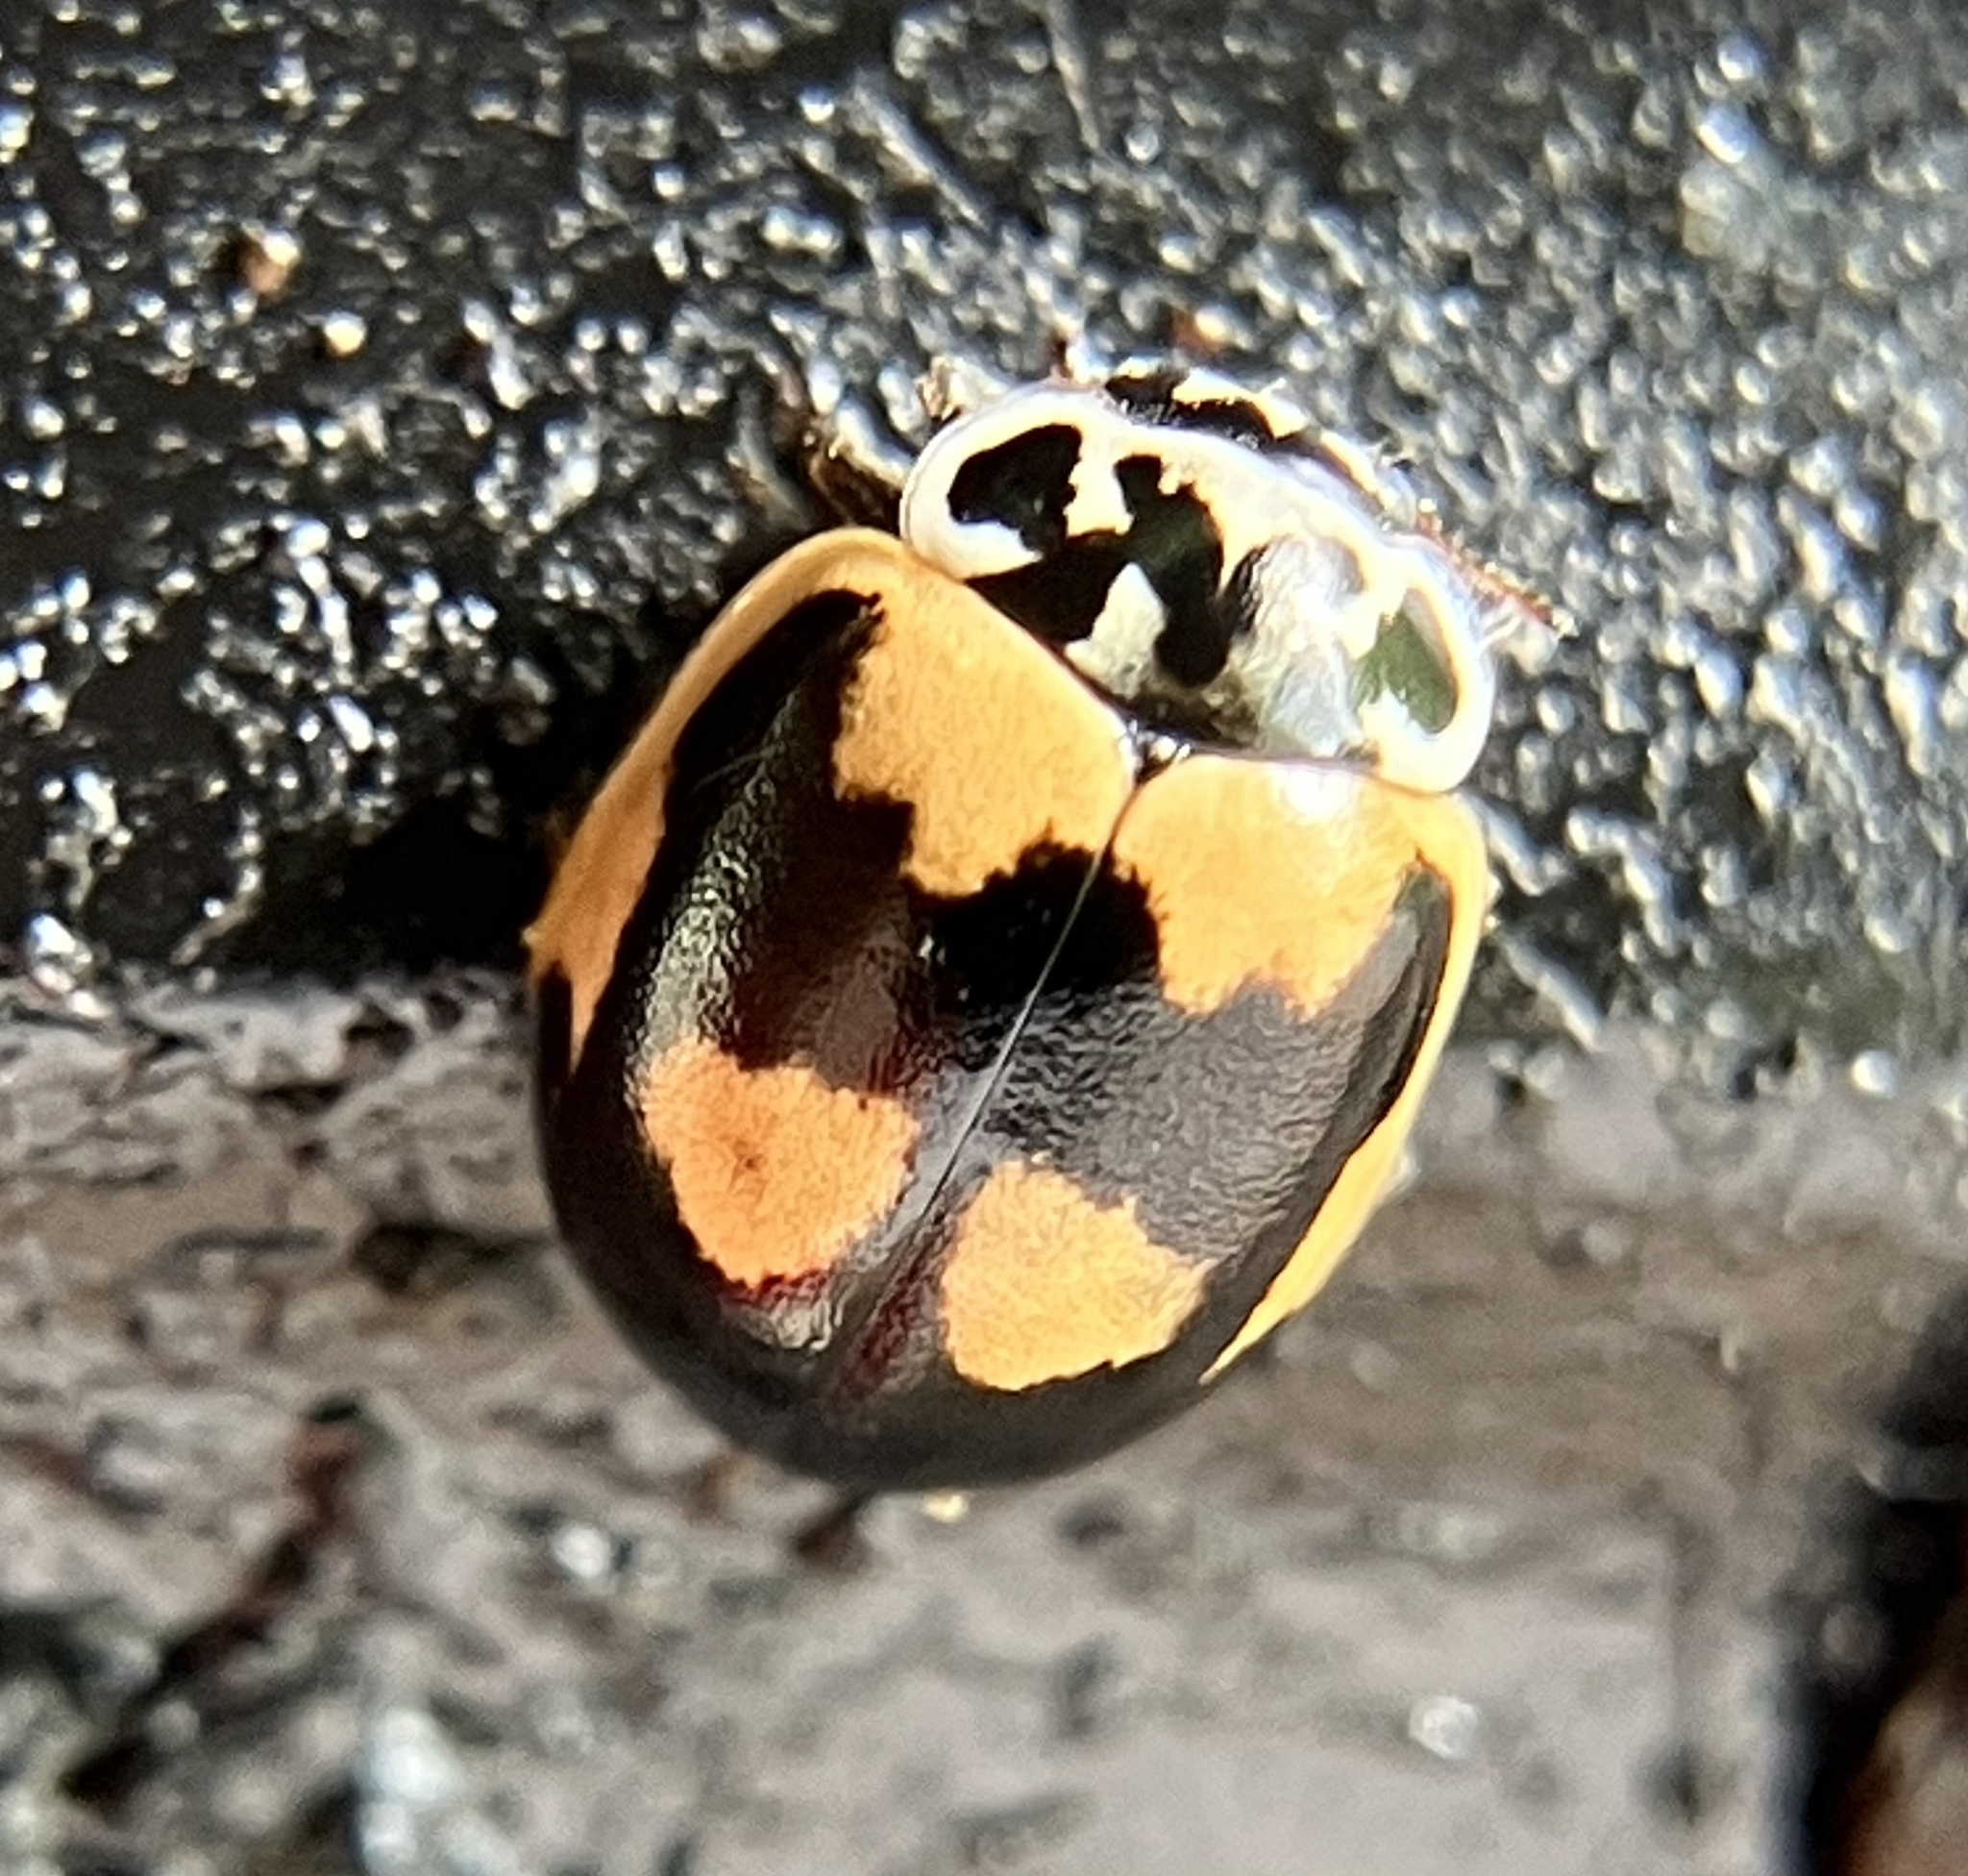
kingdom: Animalia
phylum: Arthropoda
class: Insecta
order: Coleoptera
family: Coccinellidae
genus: Mulsantina
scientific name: Mulsantina picta
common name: Painted ladybird
